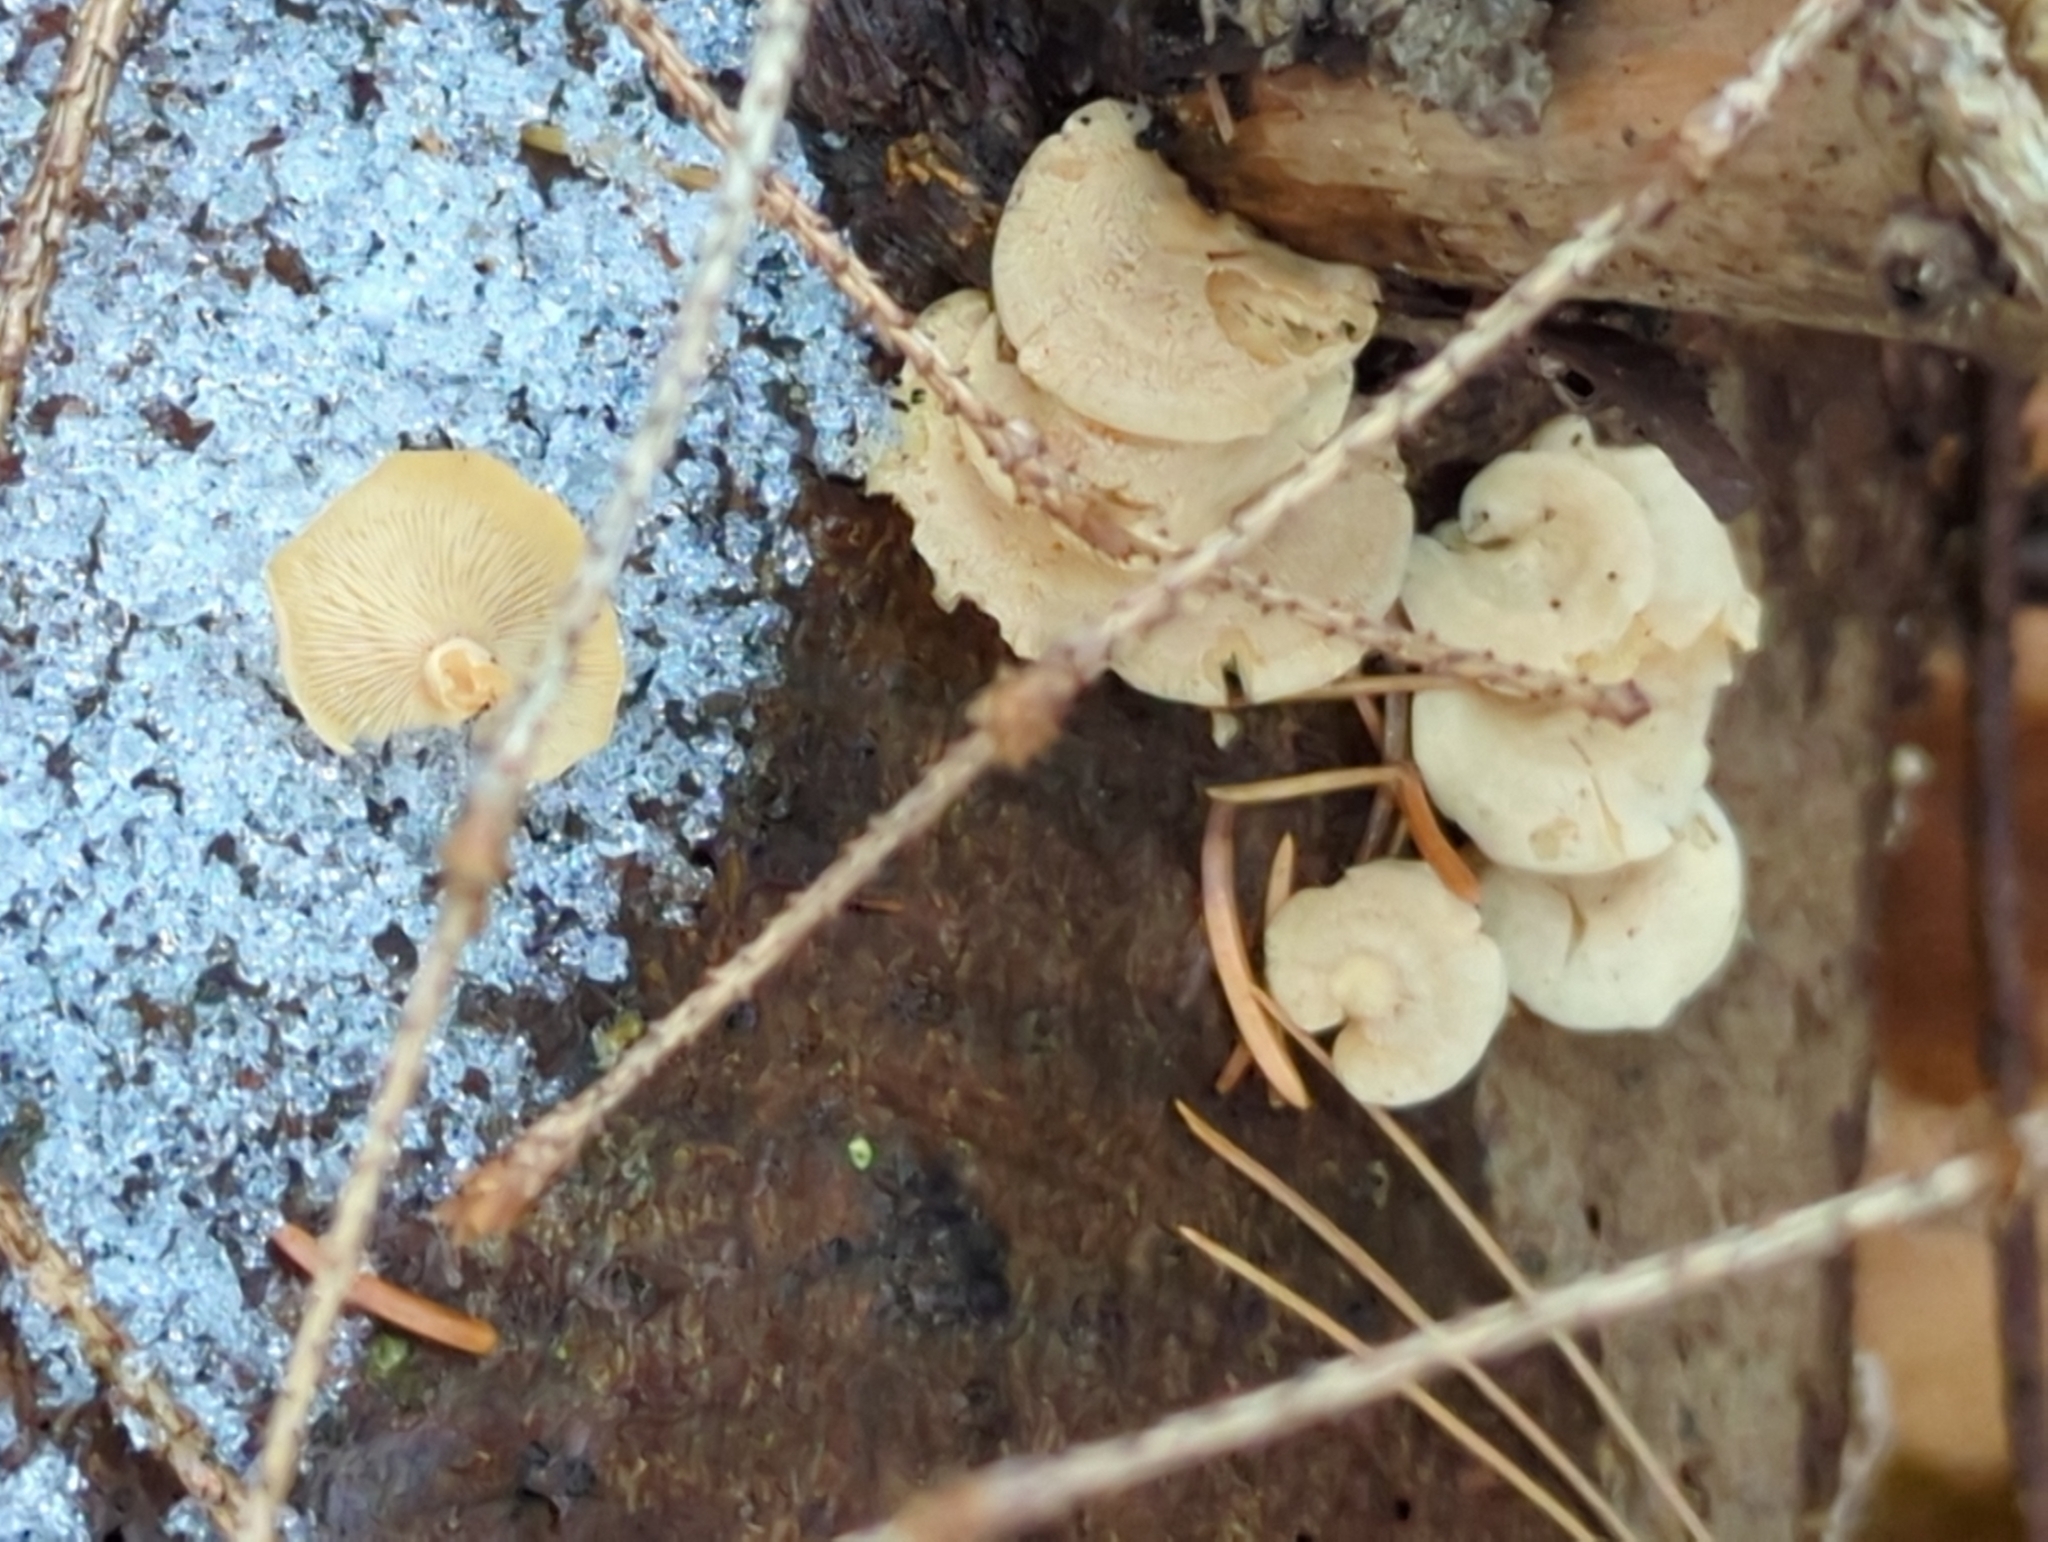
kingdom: Fungi
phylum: Basidiomycota
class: Agaricomycetes
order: Agaricales
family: Mycenaceae
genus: Panellus
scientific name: Panellus stipticus
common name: Bitter oysterling
